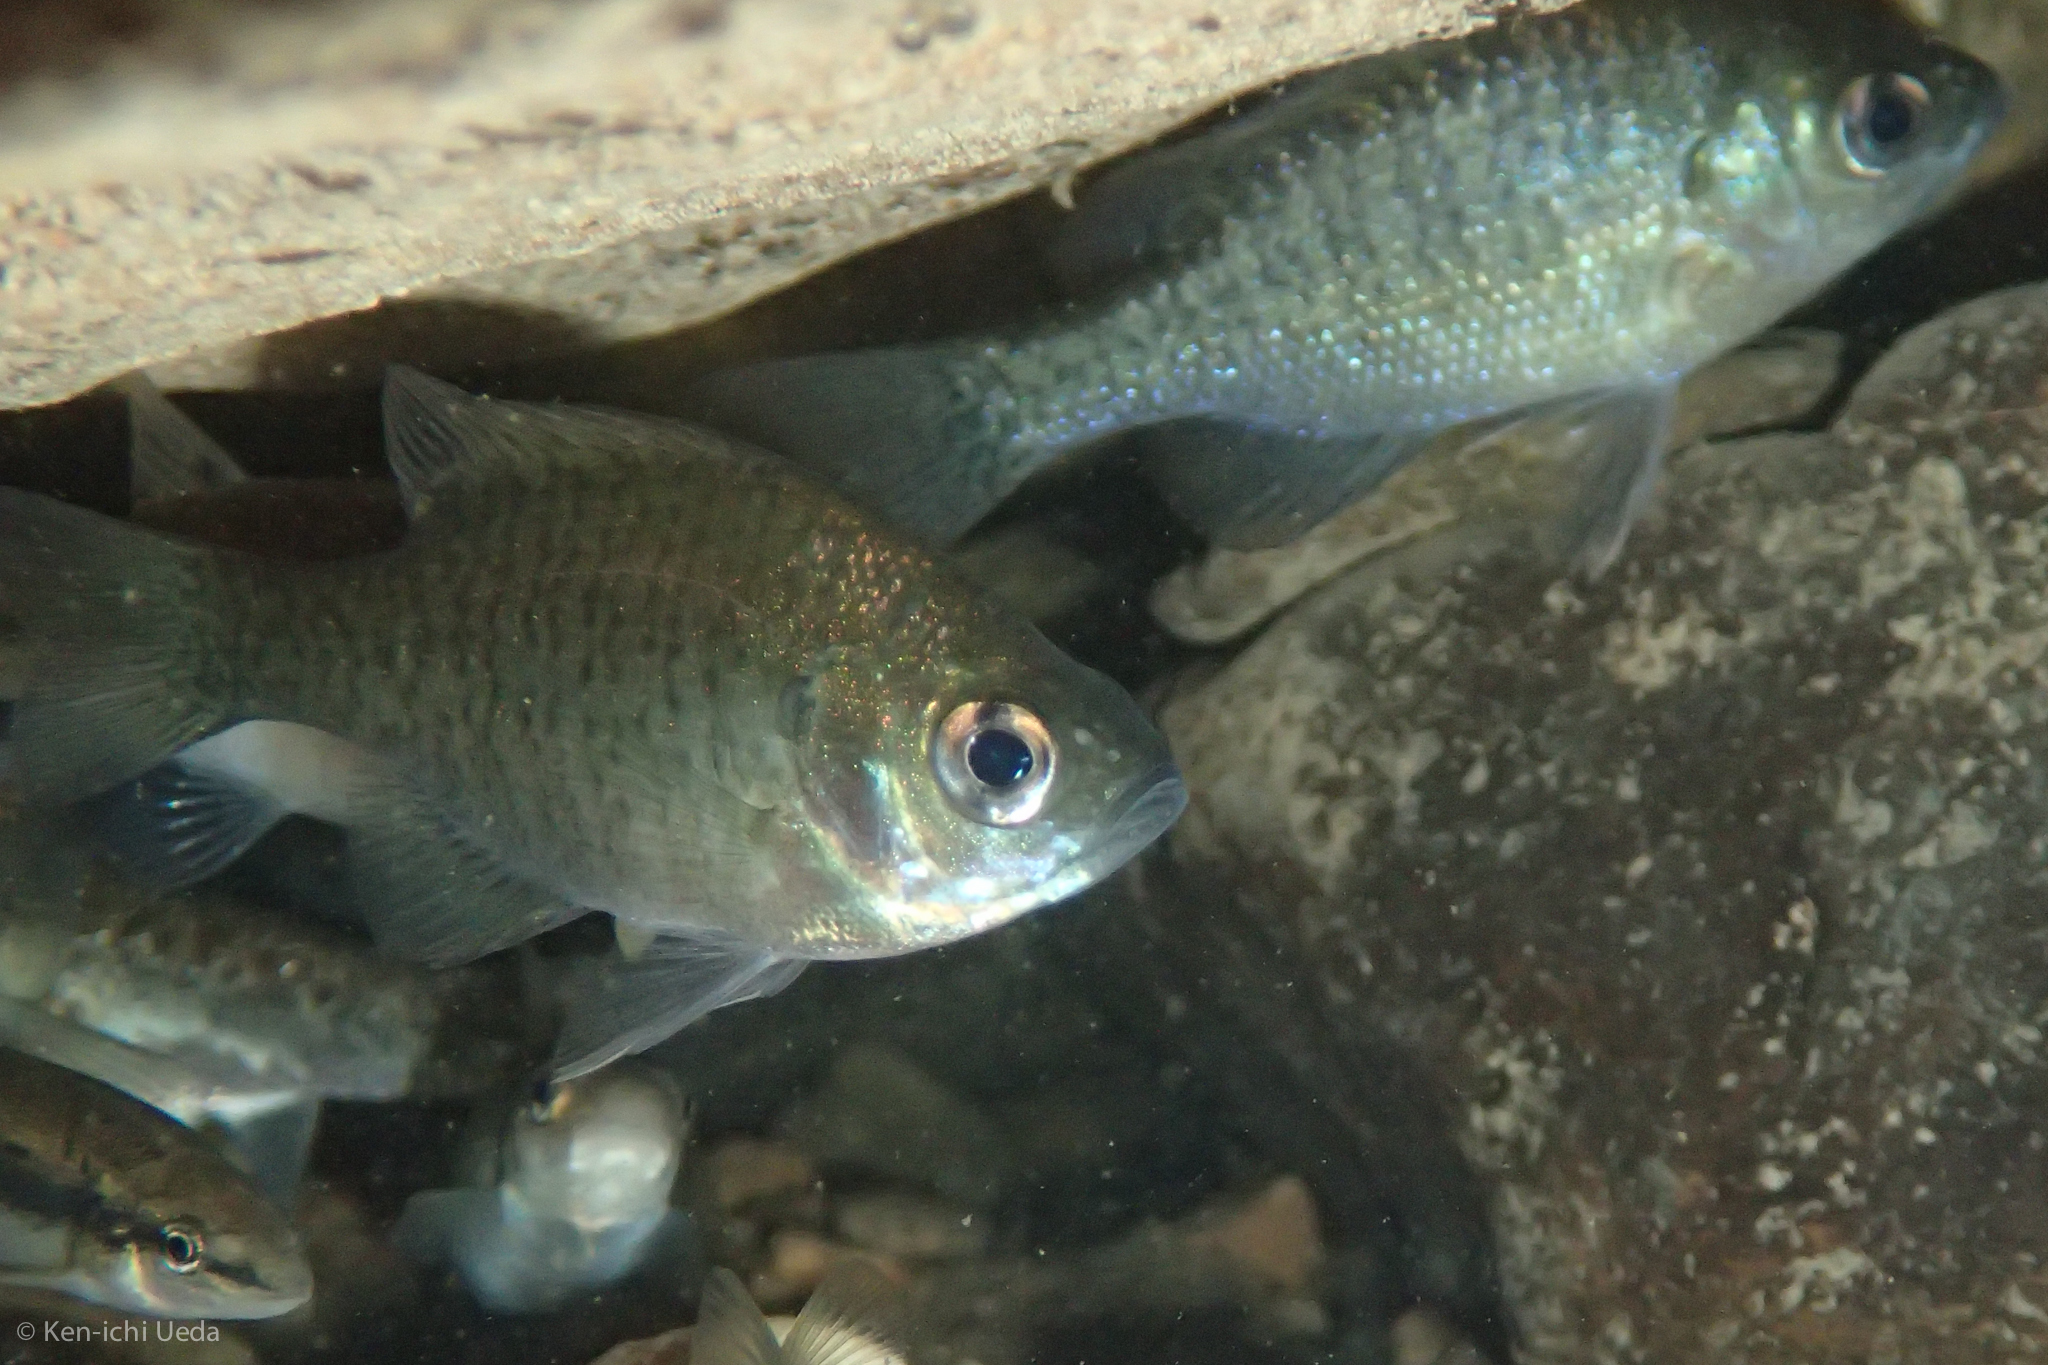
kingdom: Animalia
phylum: Chordata
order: Perciformes
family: Centrarchidae
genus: Lepomis
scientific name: Lepomis macrochirus
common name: Bluegill
